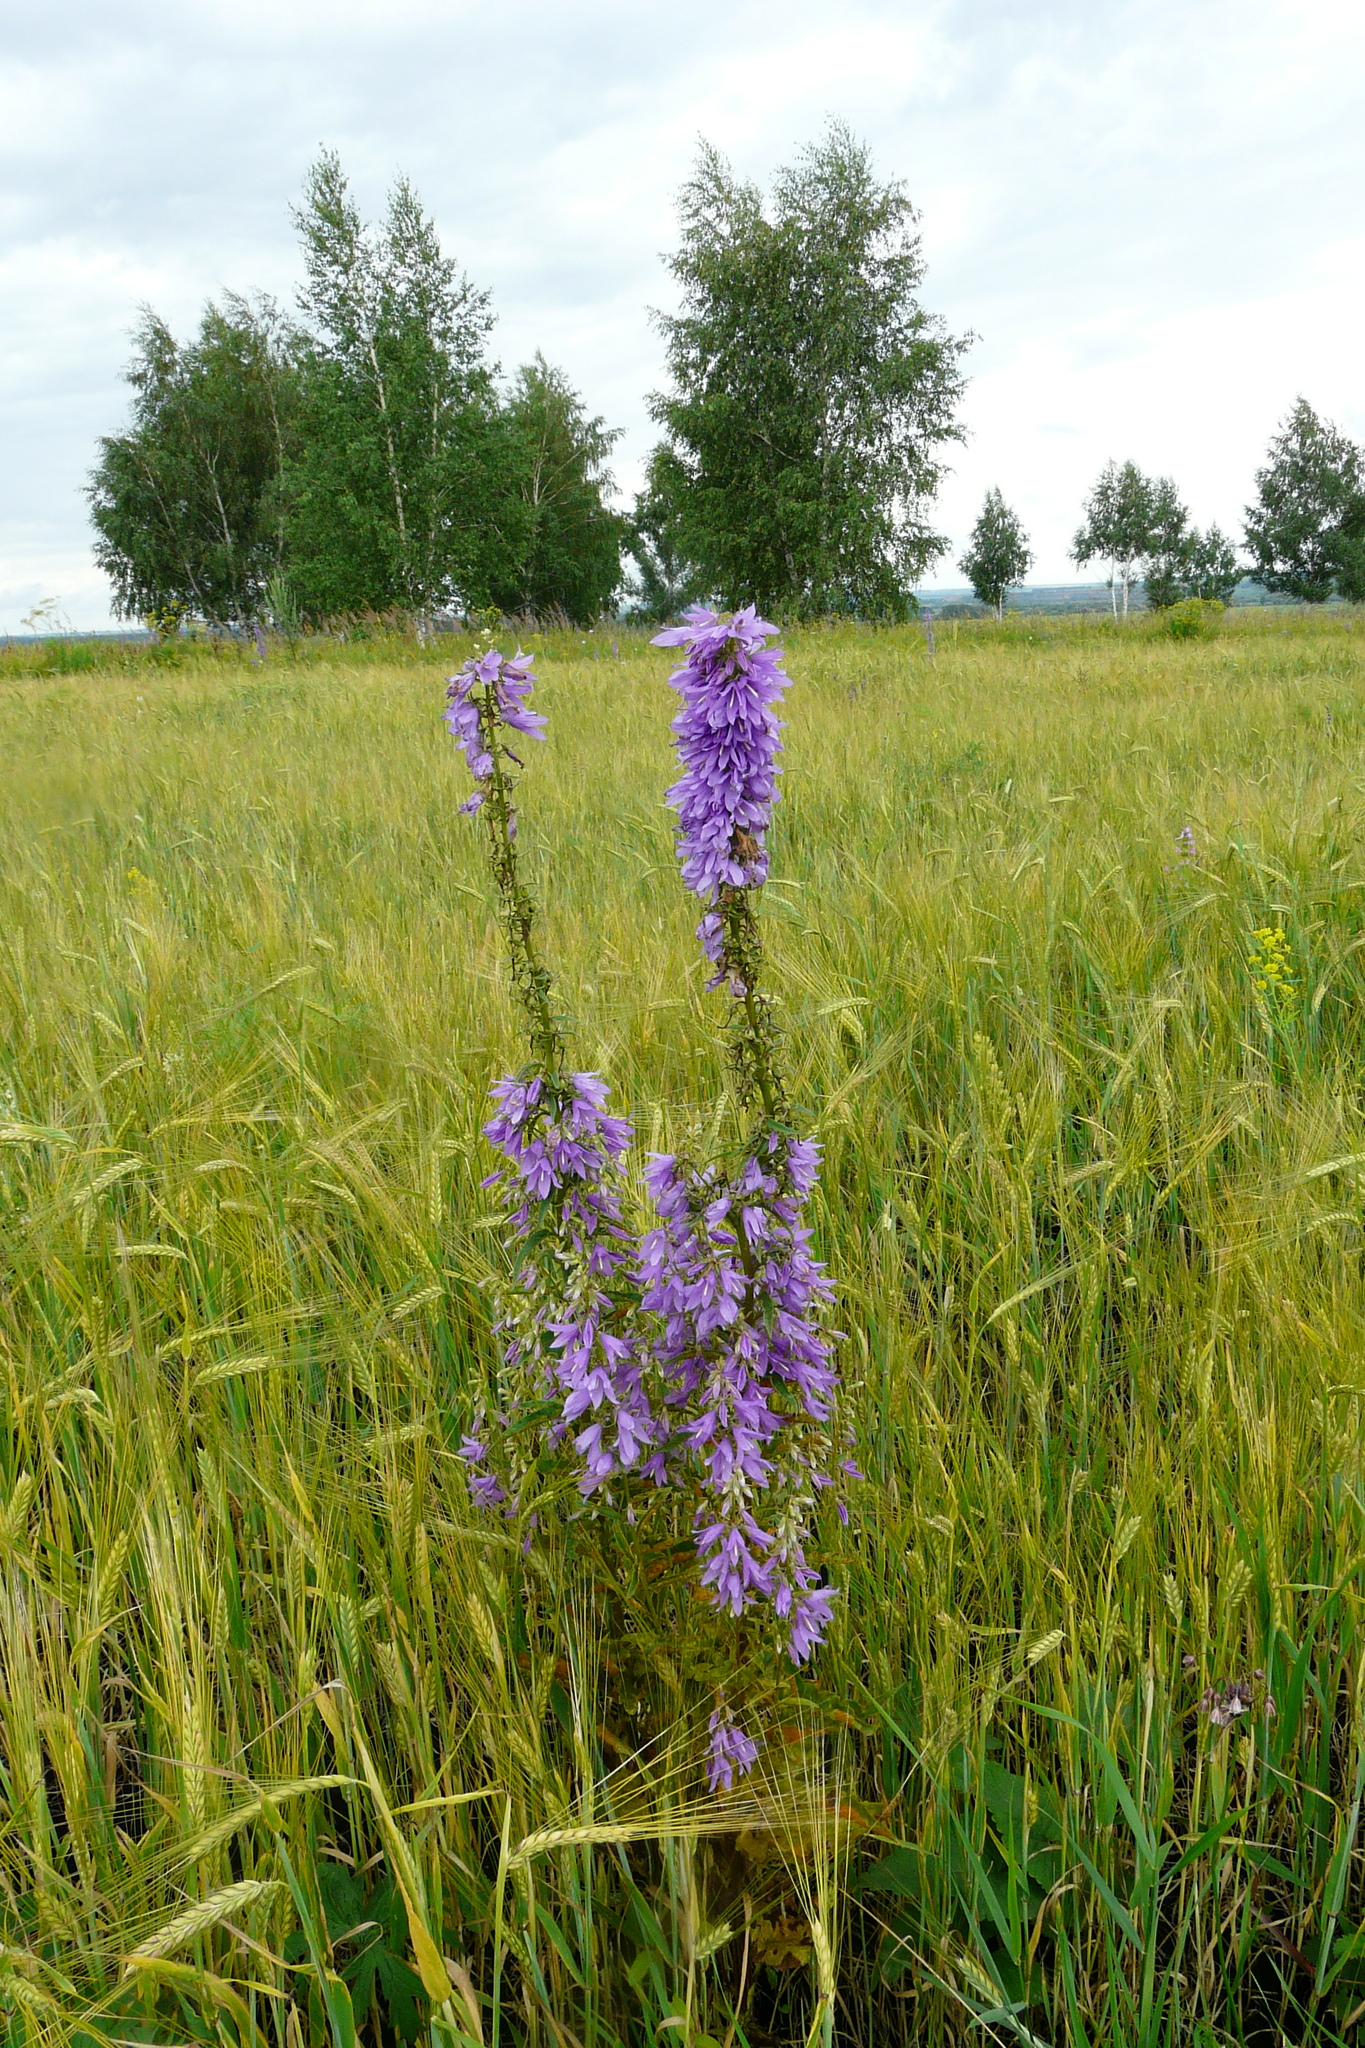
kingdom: Plantae
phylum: Tracheophyta
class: Magnoliopsida
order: Asterales
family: Campanulaceae
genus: Campanula
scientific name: Campanula bononiensis
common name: Pale bellflower
